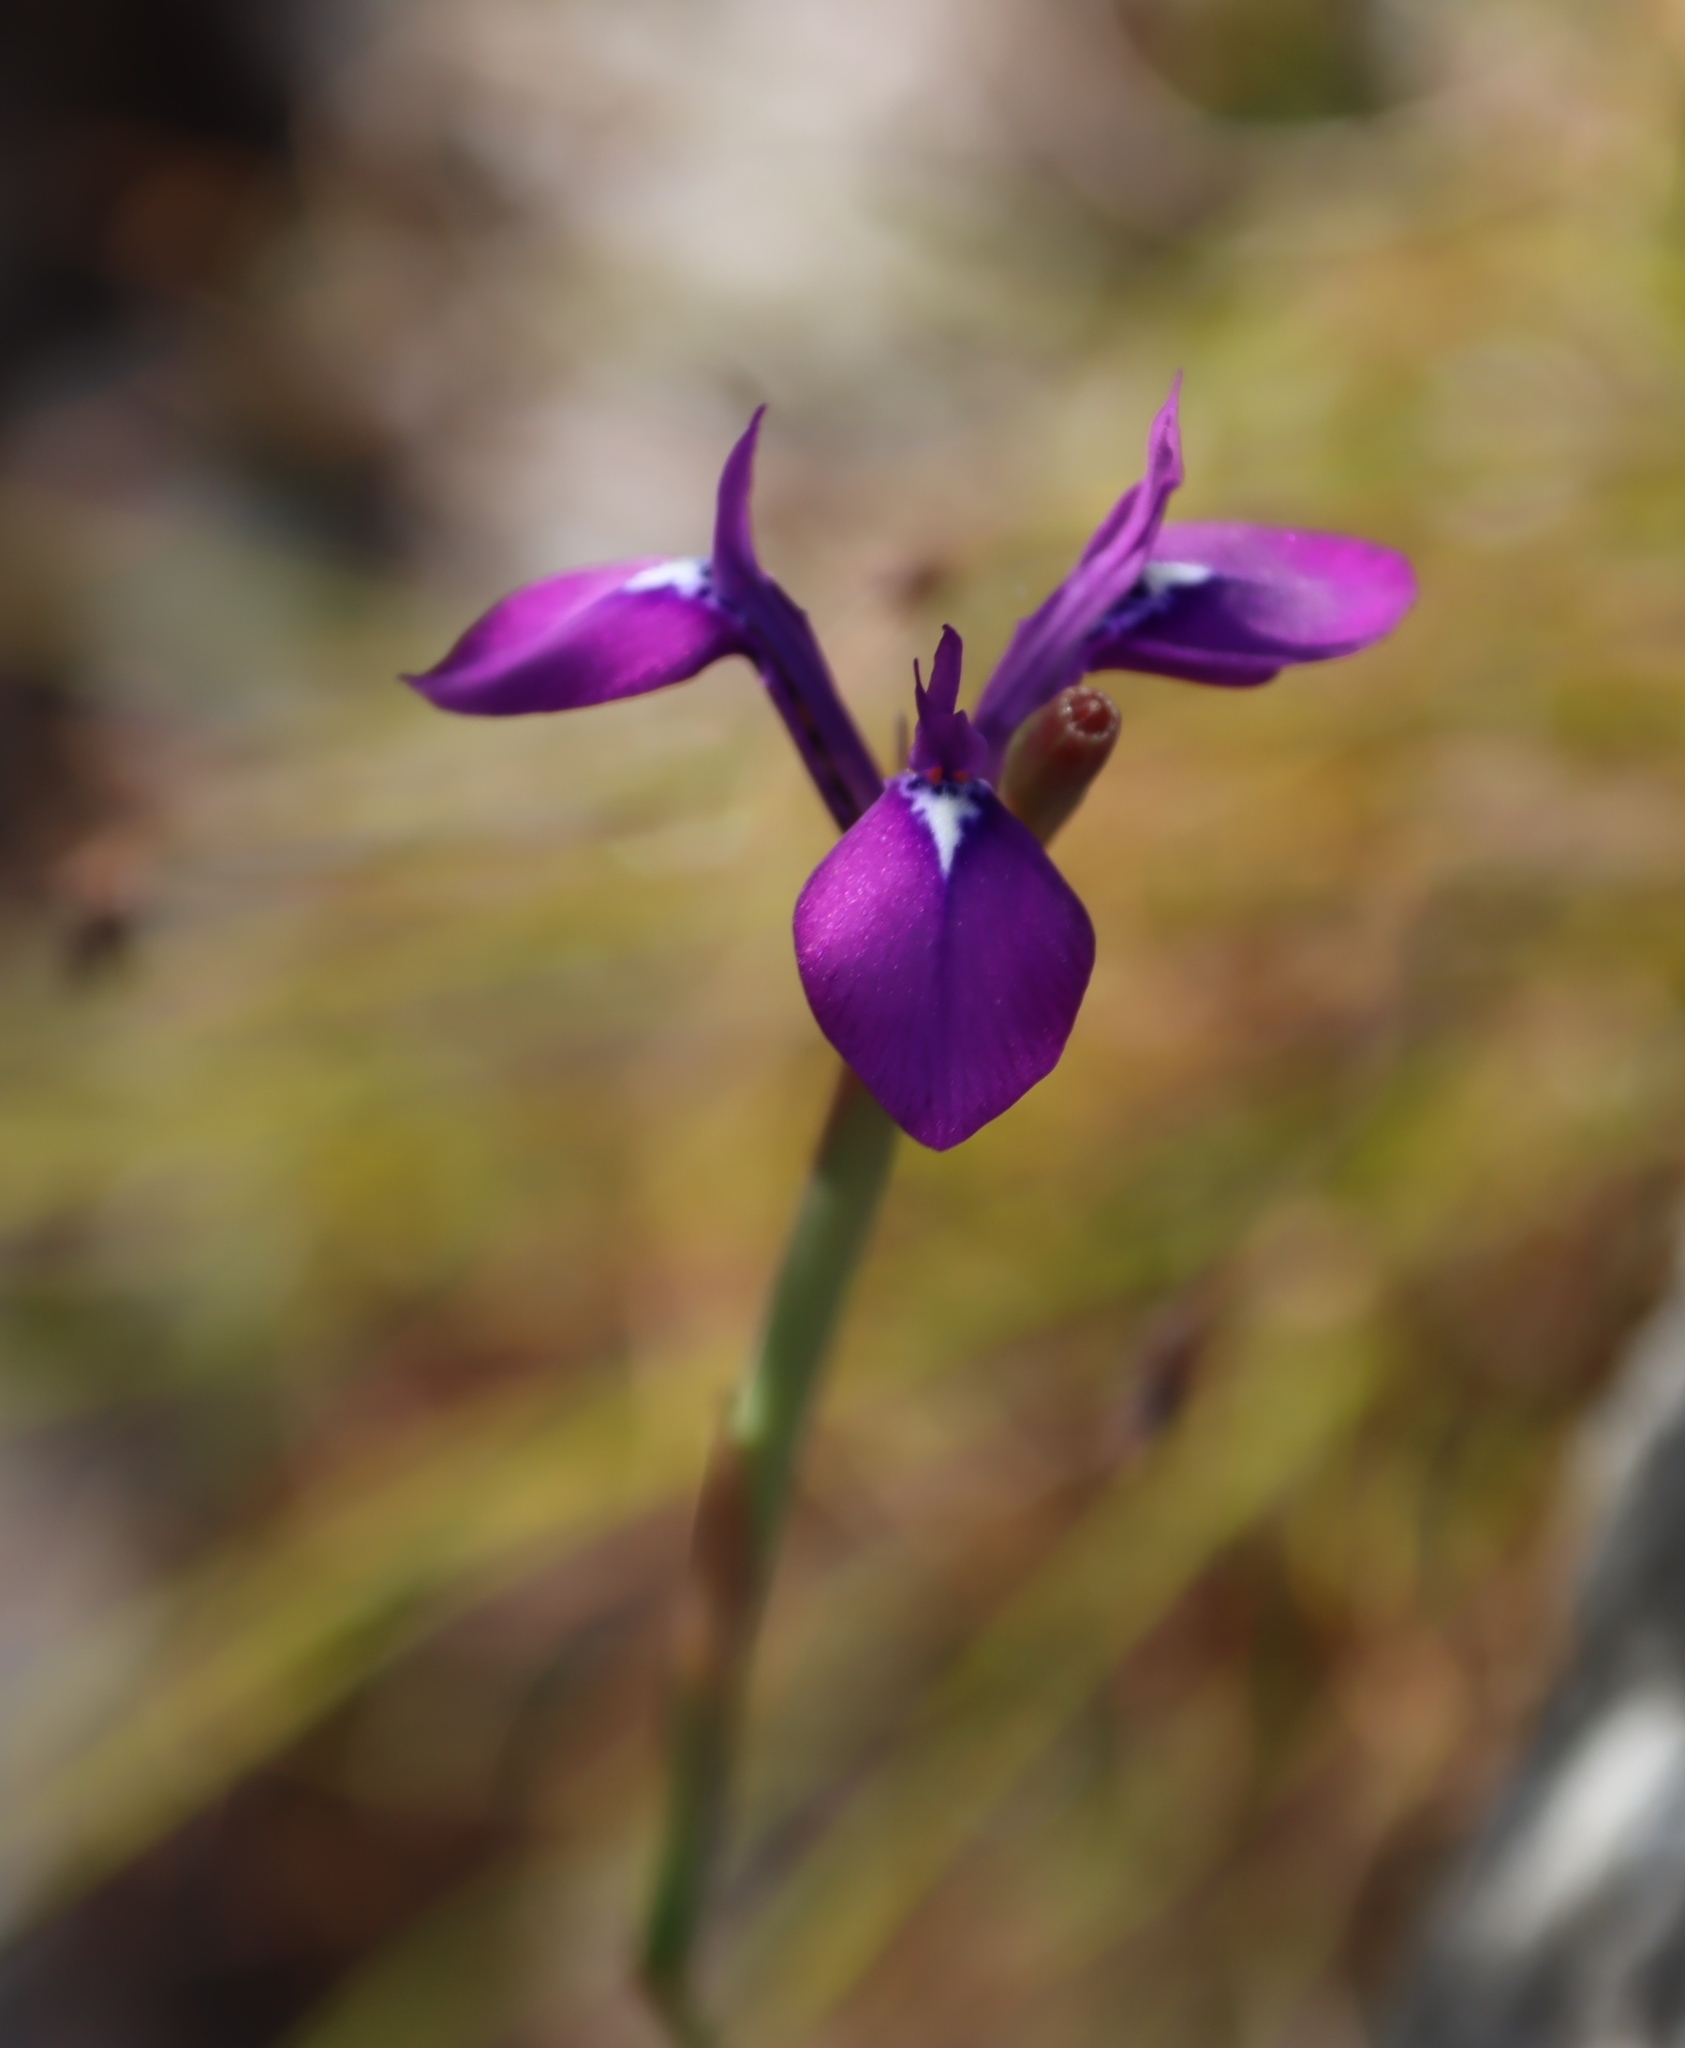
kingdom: Plantae
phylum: Tracheophyta
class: Liliopsida
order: Asparagales
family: Iridaceae
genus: Moraea
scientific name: Moraea tripetala
